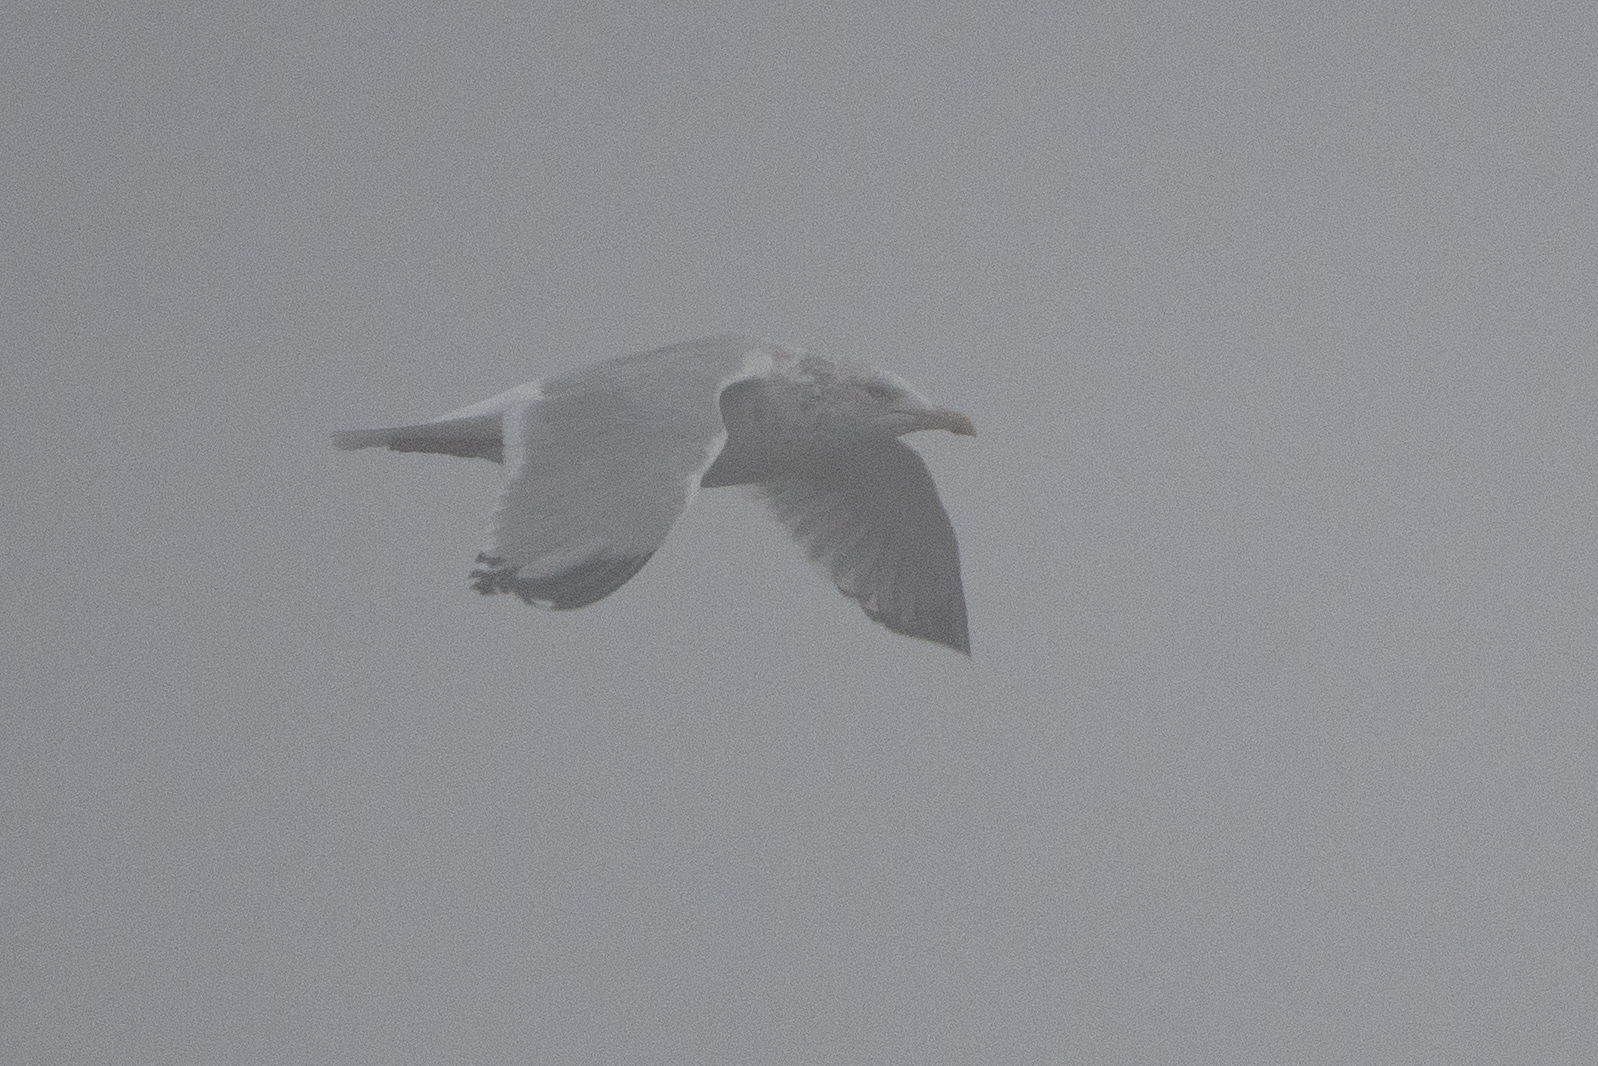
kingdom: Animalia
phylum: Chordata
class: Aves
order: Charadriiformes
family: Laridae
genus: Larus
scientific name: Larus argentatus
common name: Herring gull
